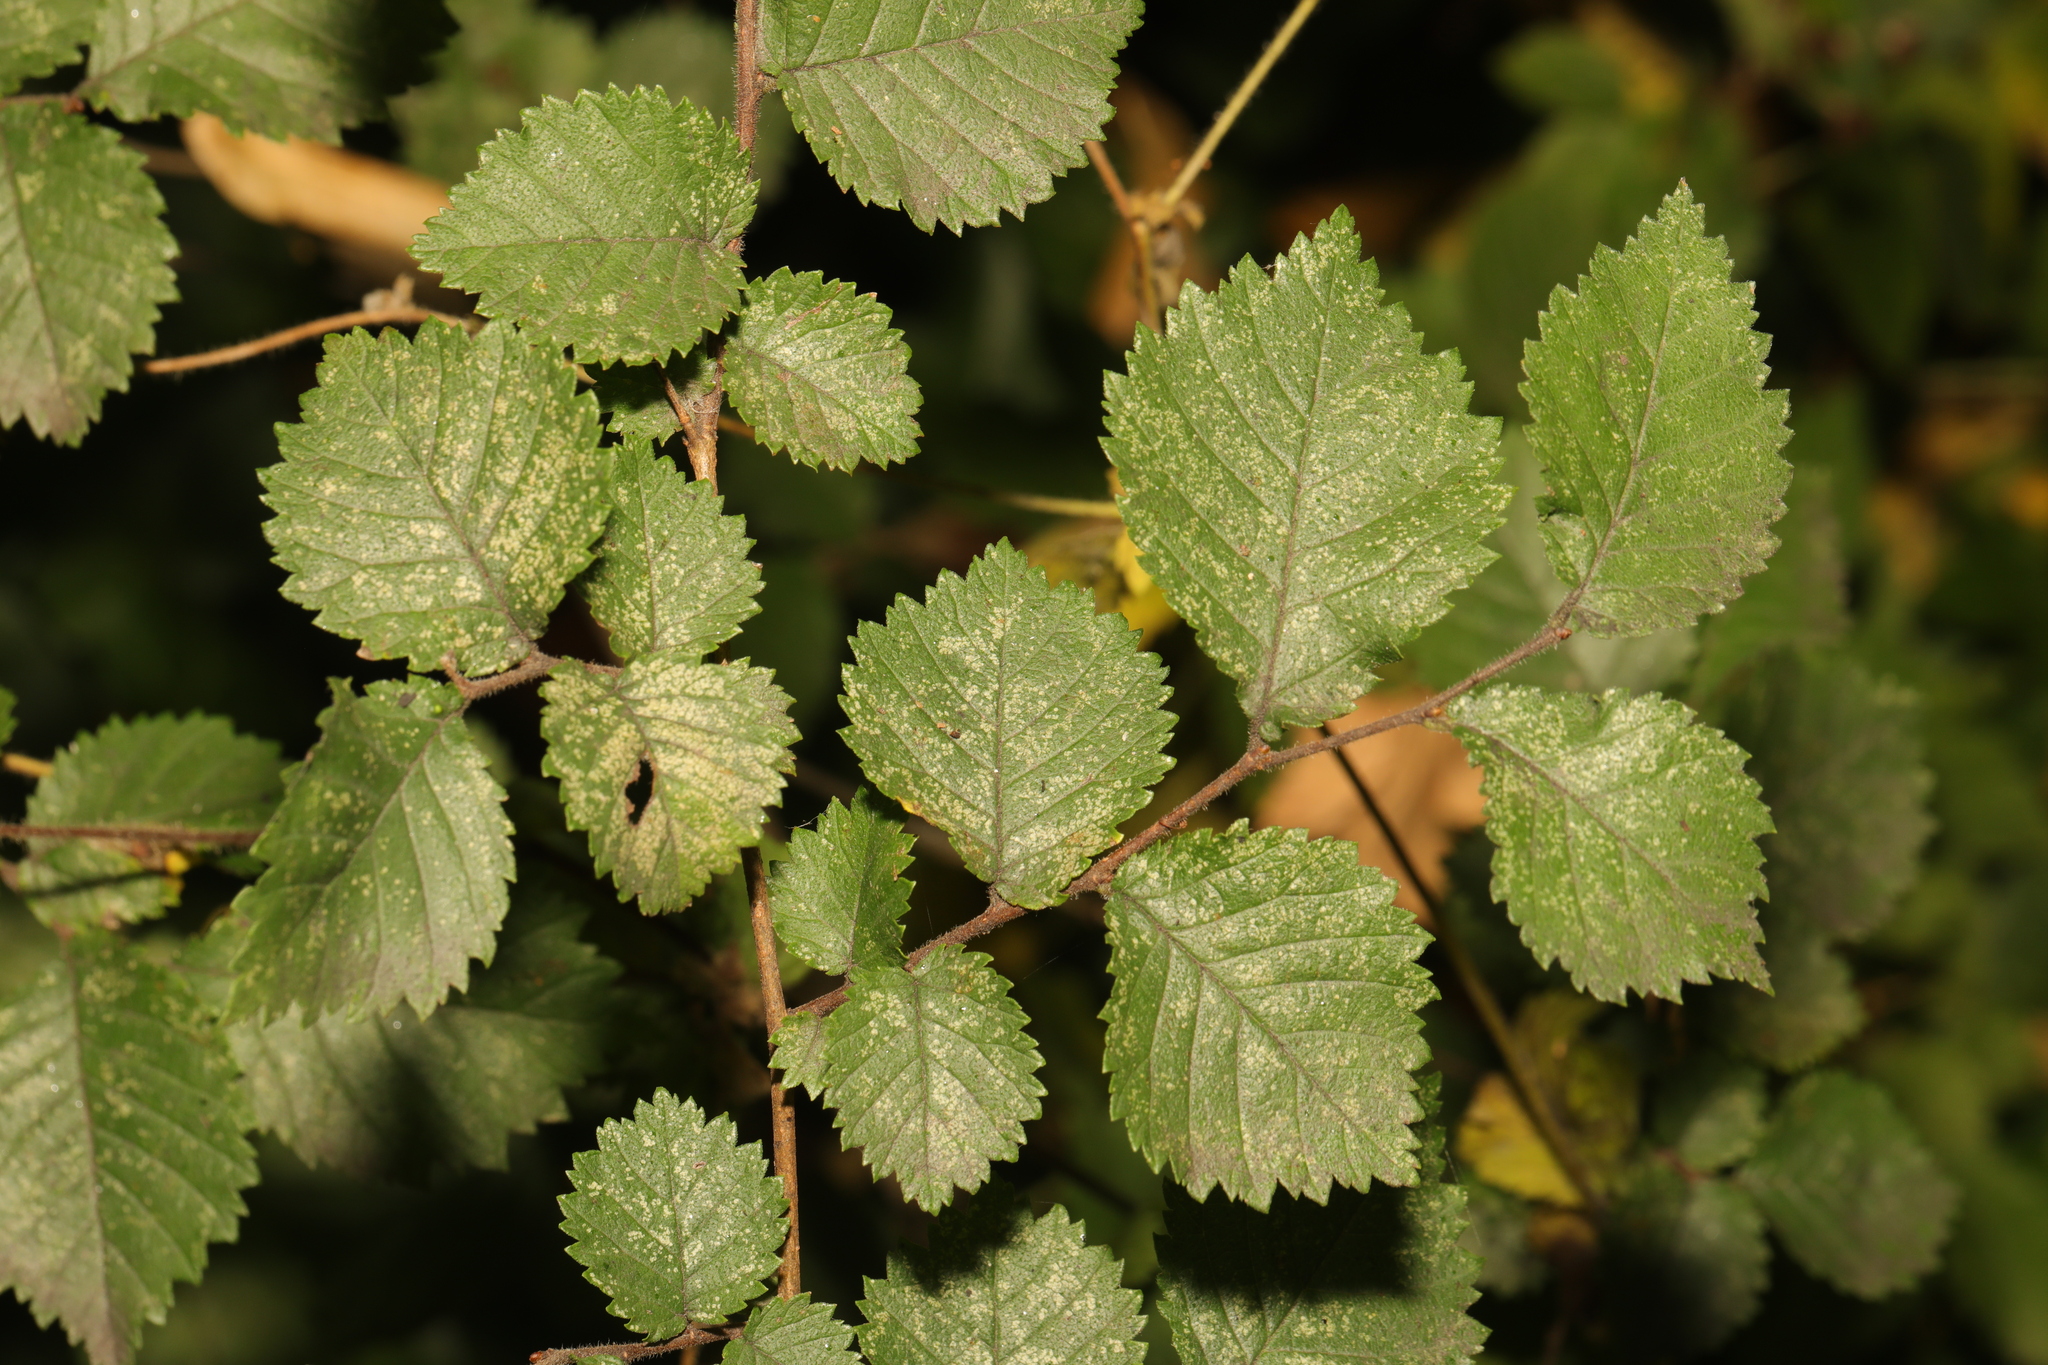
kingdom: Plantae
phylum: Tracheophyta
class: Magnoliopsida
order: Rosales
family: Ulmaceae
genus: Ulmus
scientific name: Ulmus minor
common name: Small-leaved elm
